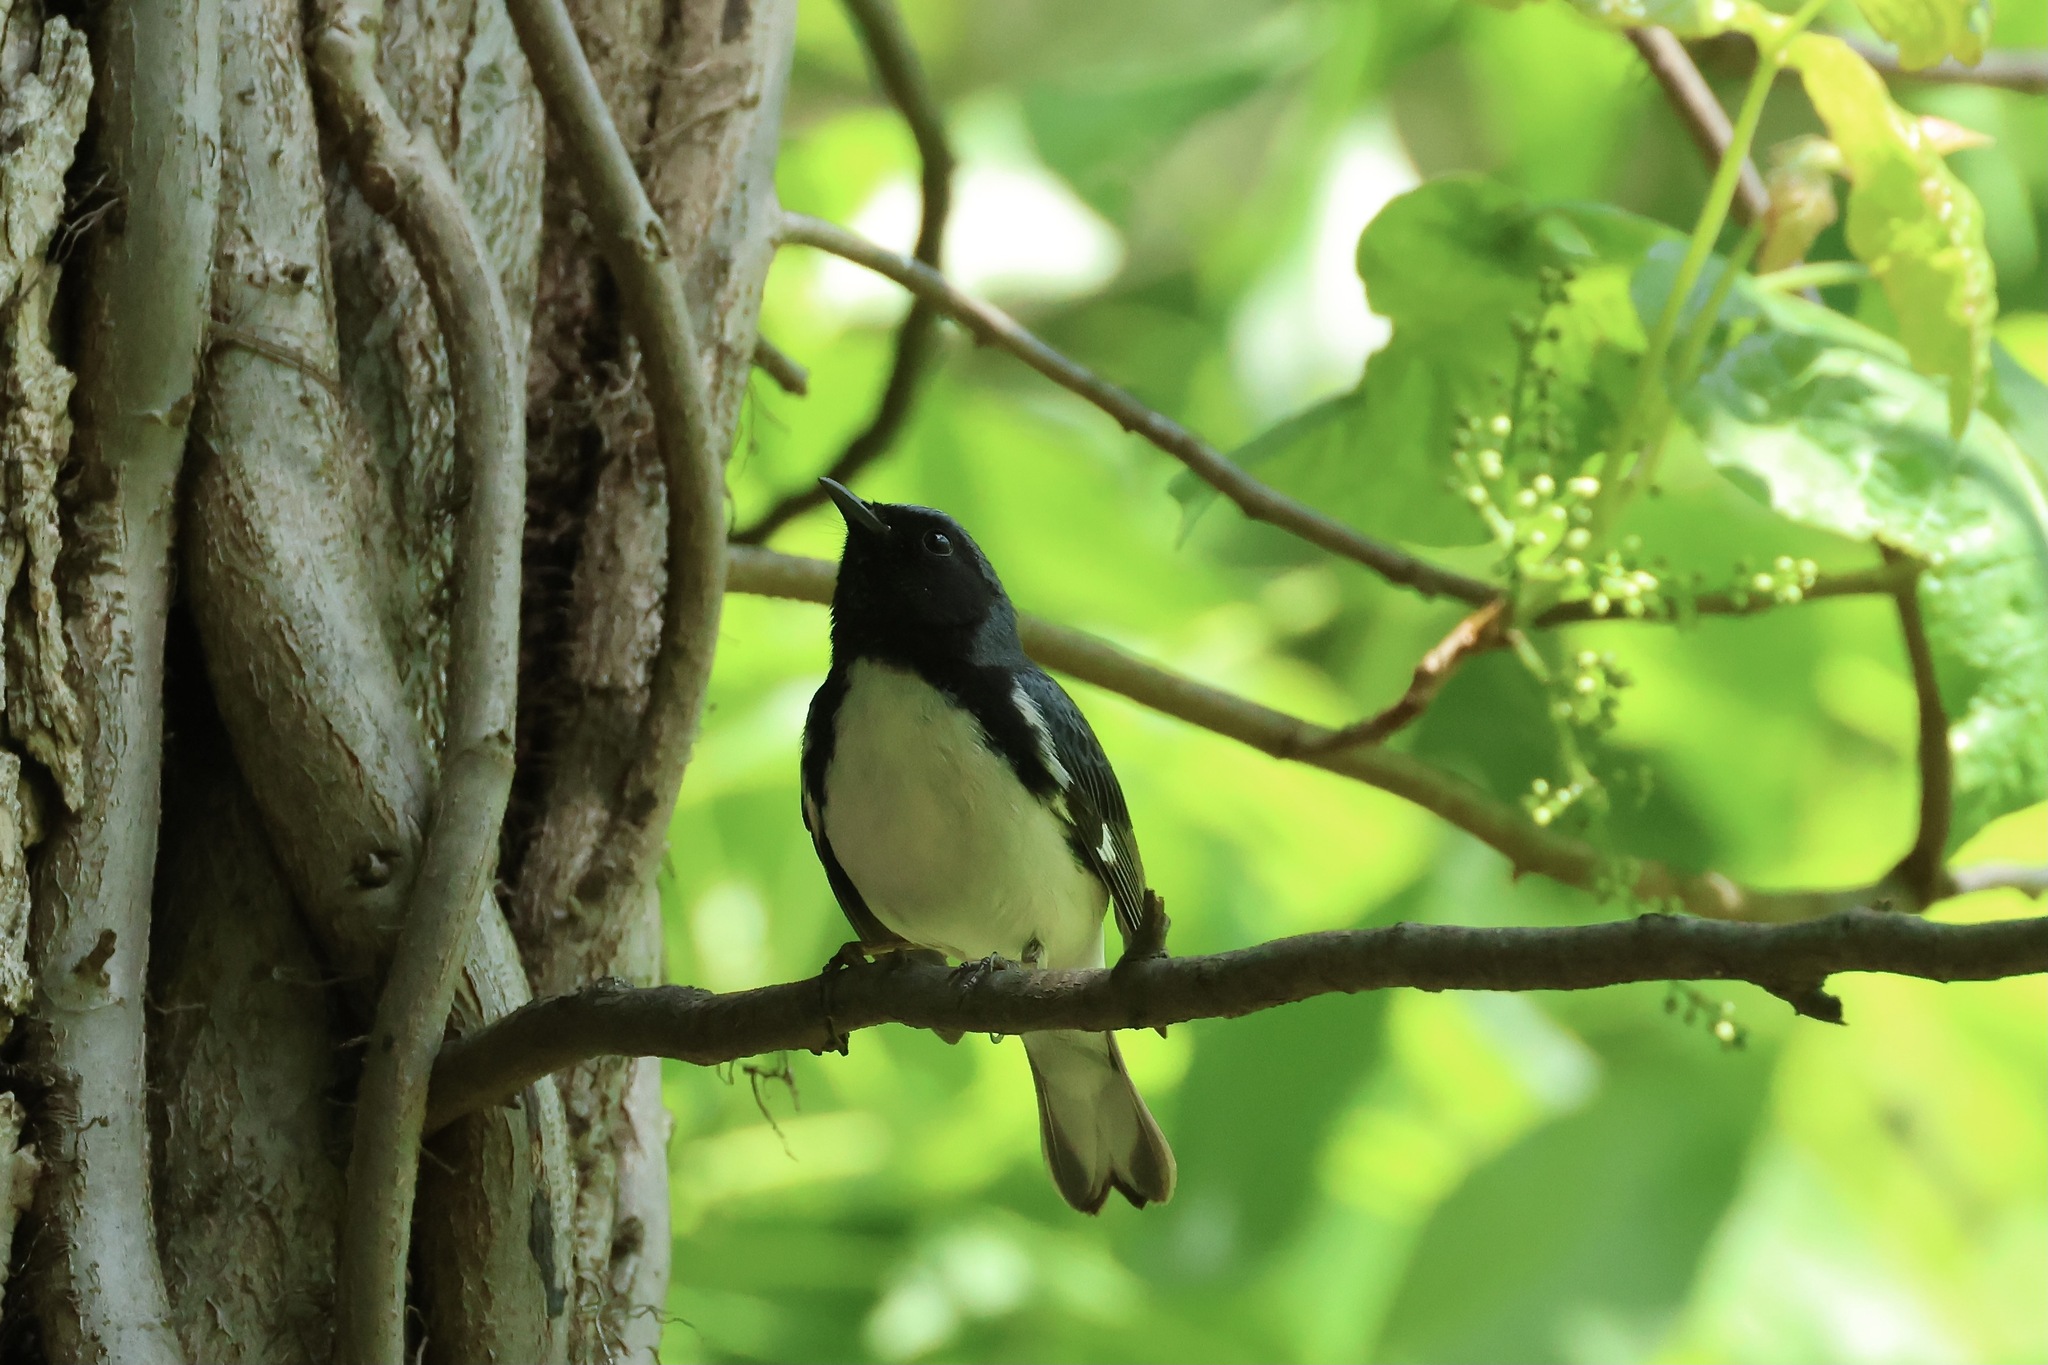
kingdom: Animalia
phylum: Chordata
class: Aves
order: Passeriformes
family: Parulidae
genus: Setophaga
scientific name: Setophaga caerulescens
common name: Black-throated blue warbler
